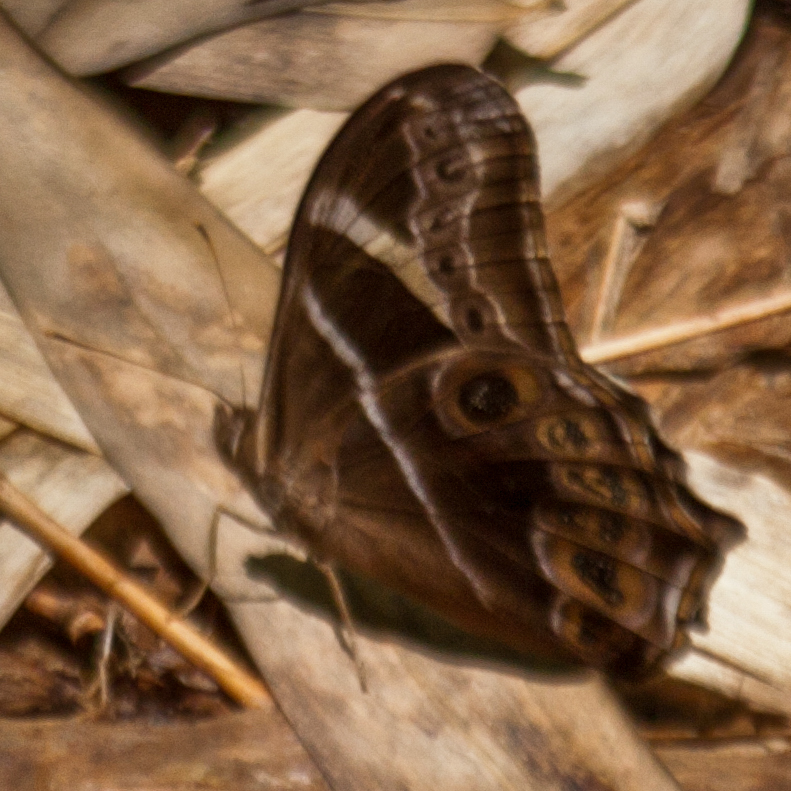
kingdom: Animalia
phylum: Arthropoda
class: Insecta
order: Lepidoptera
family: Nymphalidae
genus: Lethe
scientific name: Lethe europa
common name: Bamboo treebrown
